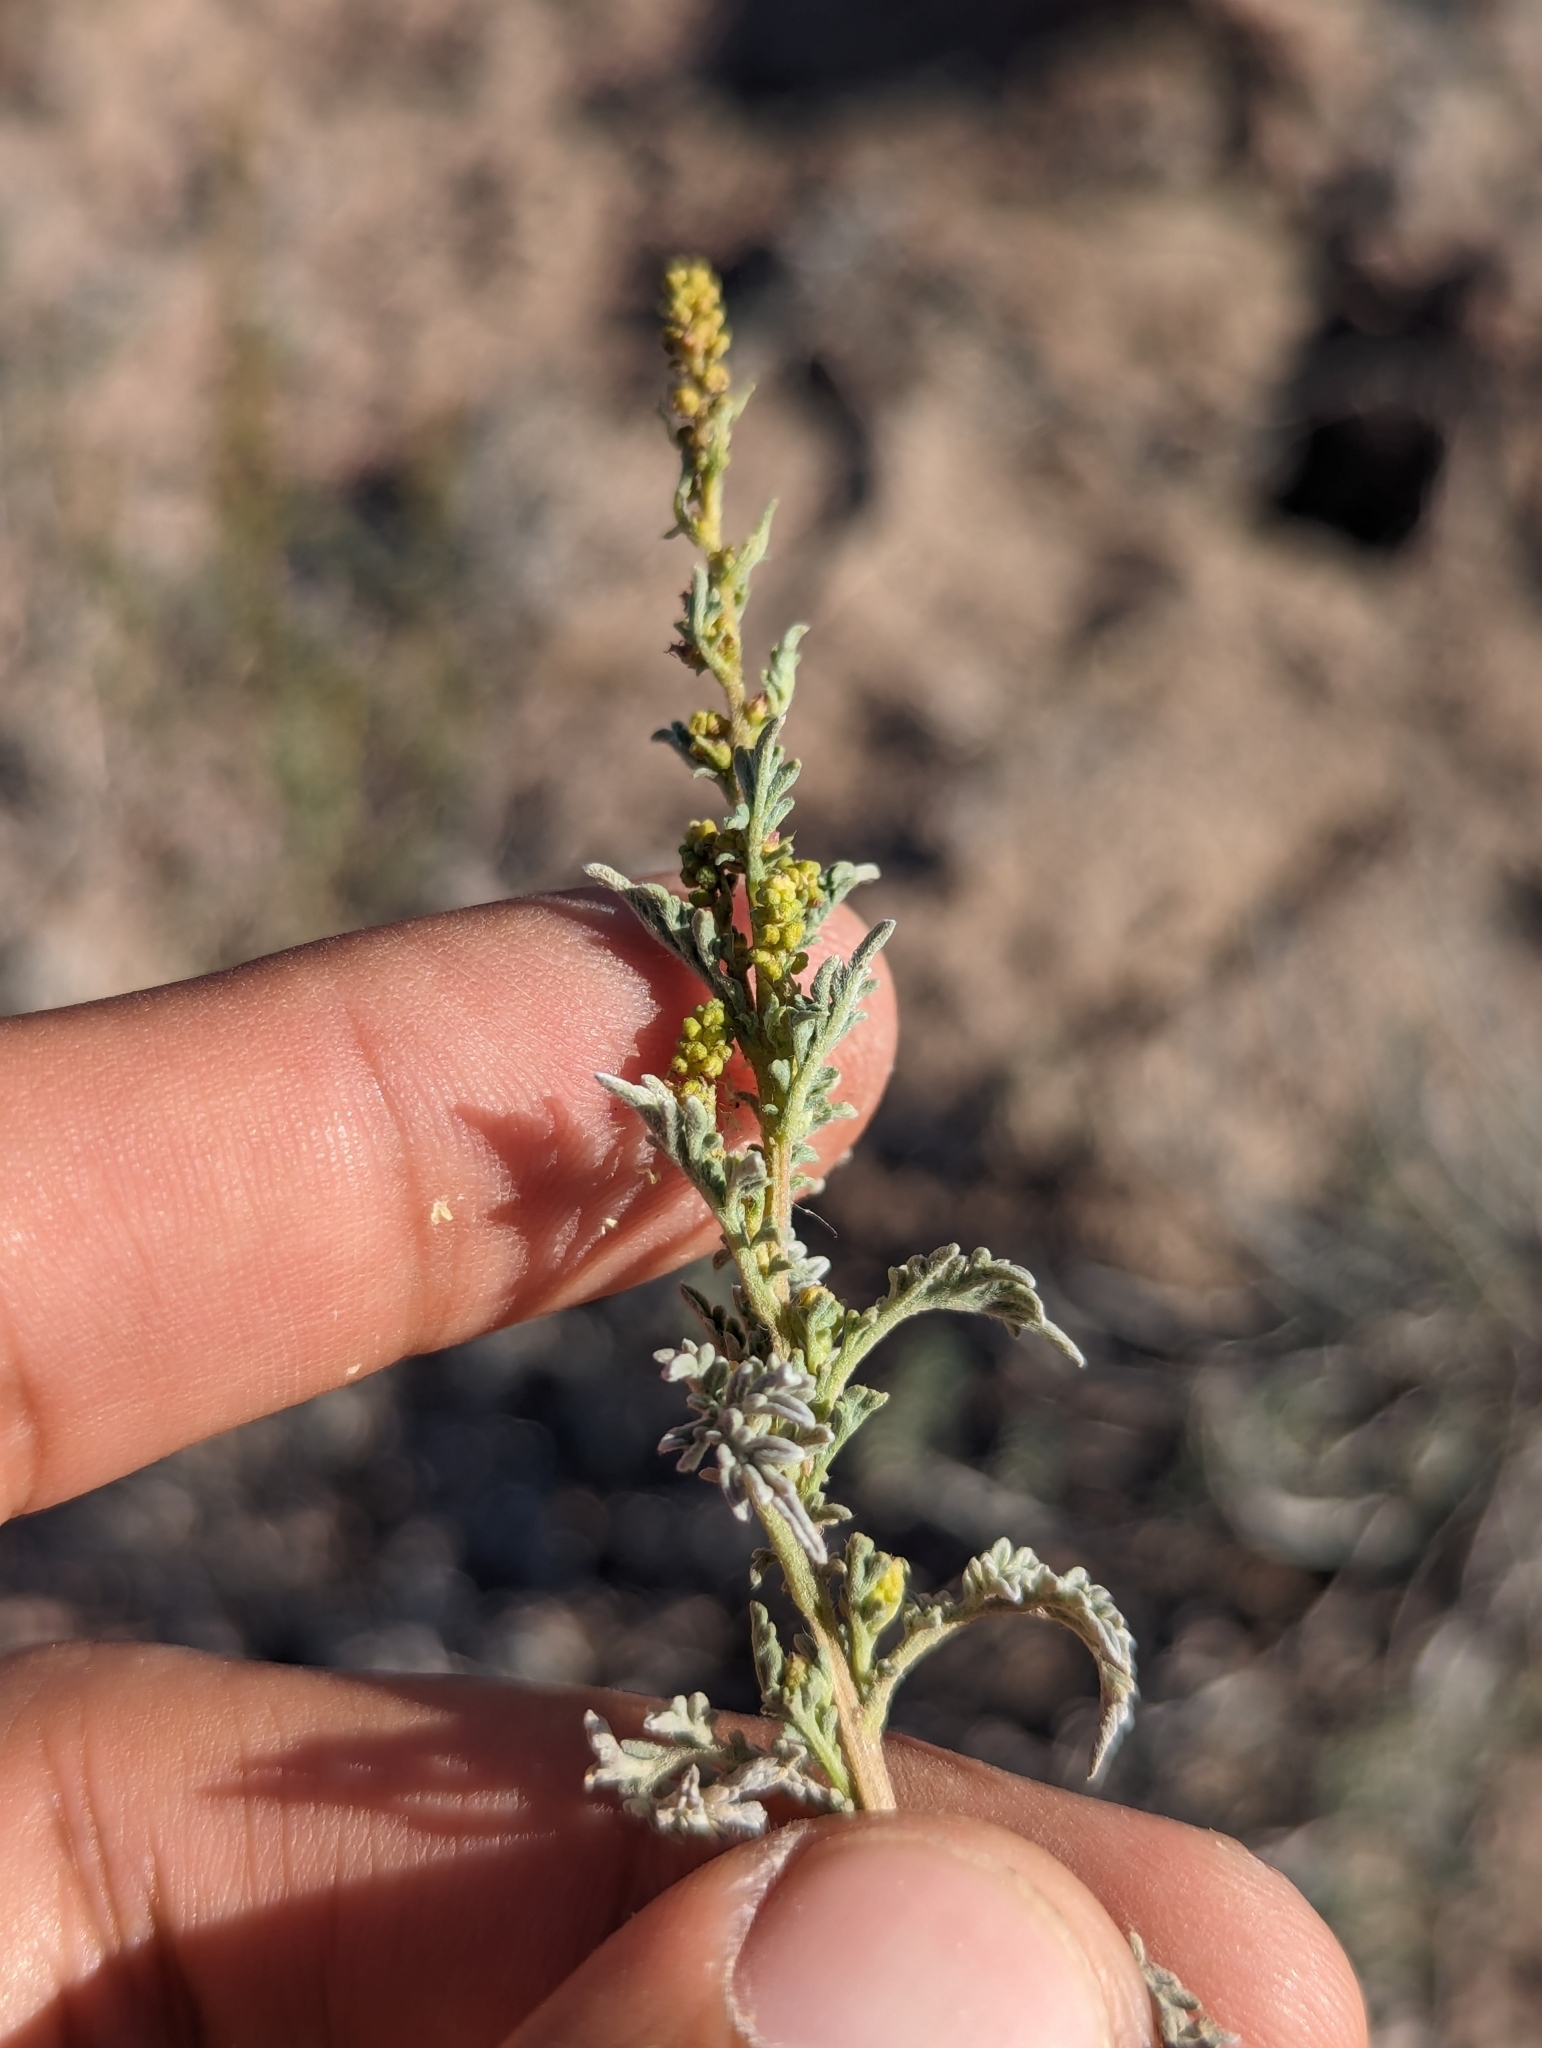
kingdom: Plantae
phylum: Tracheophyta
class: Magnoliopsida
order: Asterales
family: Asteraceae
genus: Ambrosia
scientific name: Ambrosia confertiflora
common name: Bur ragweed
